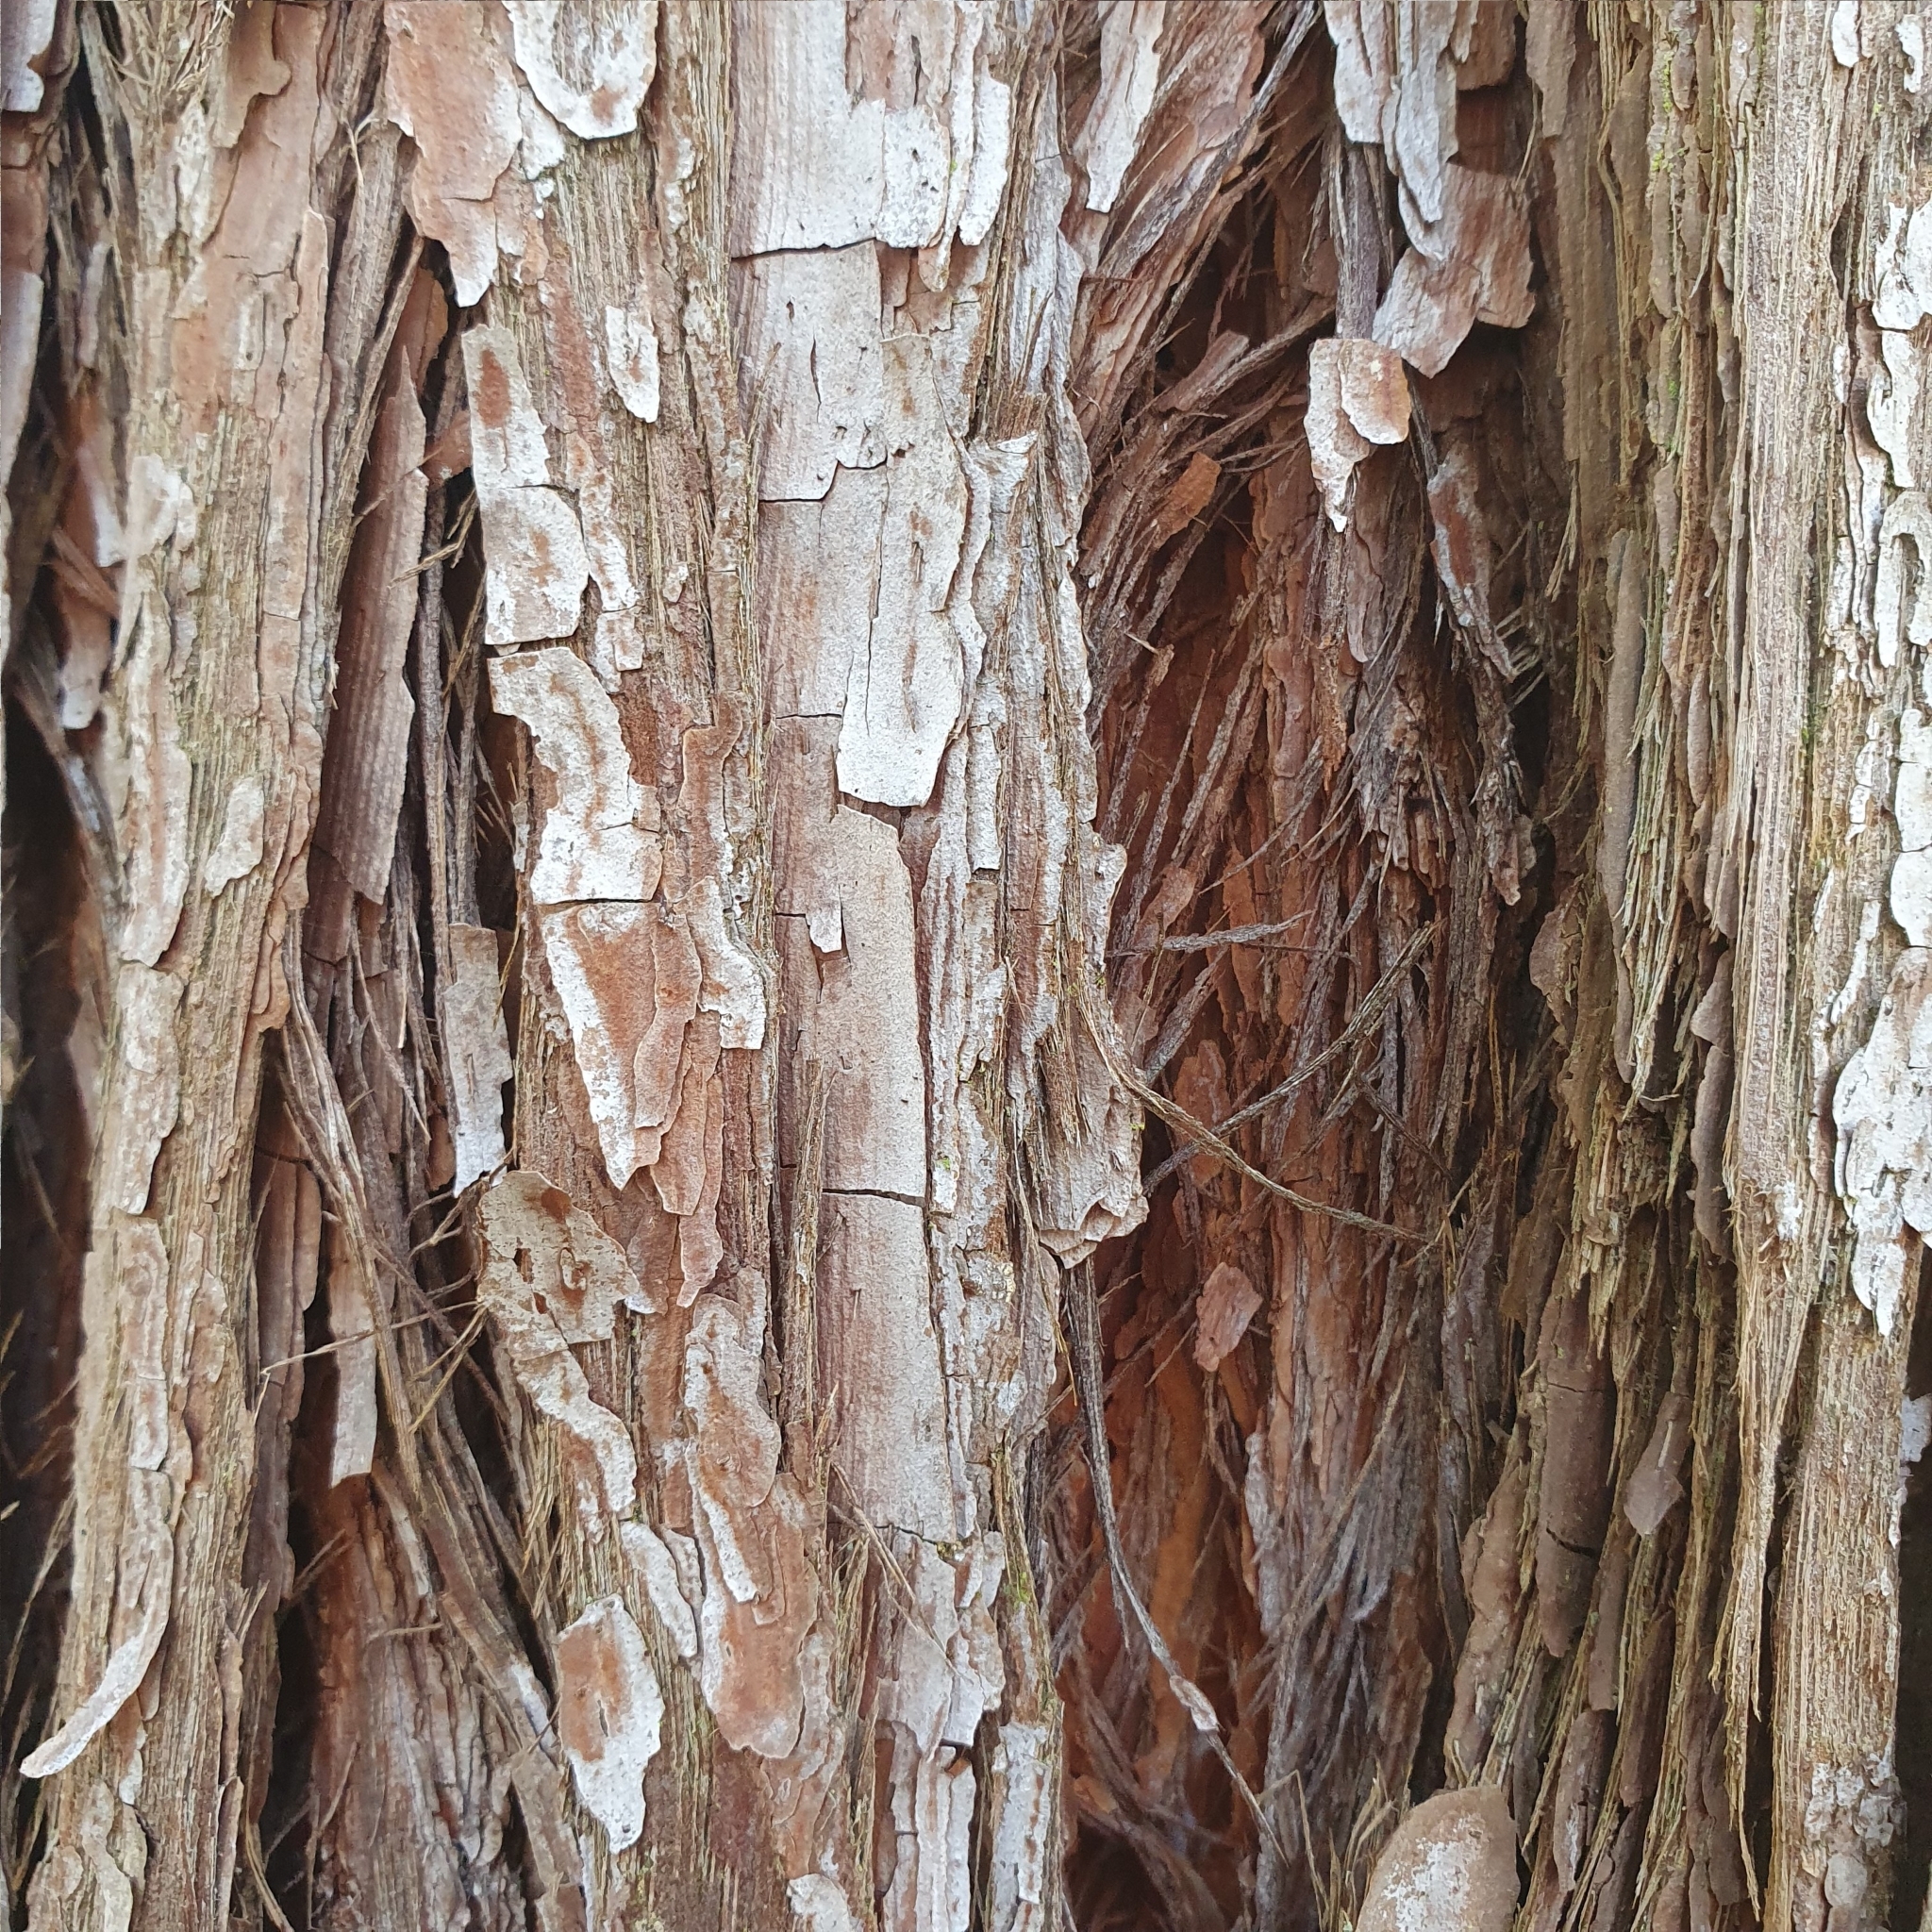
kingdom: Plantae
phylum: Tracheophyta
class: Magnoliopsida
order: Myrtales
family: Myrtaceae
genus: Syncarpia
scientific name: Syncarpia glomulifera
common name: Turpentine tree
